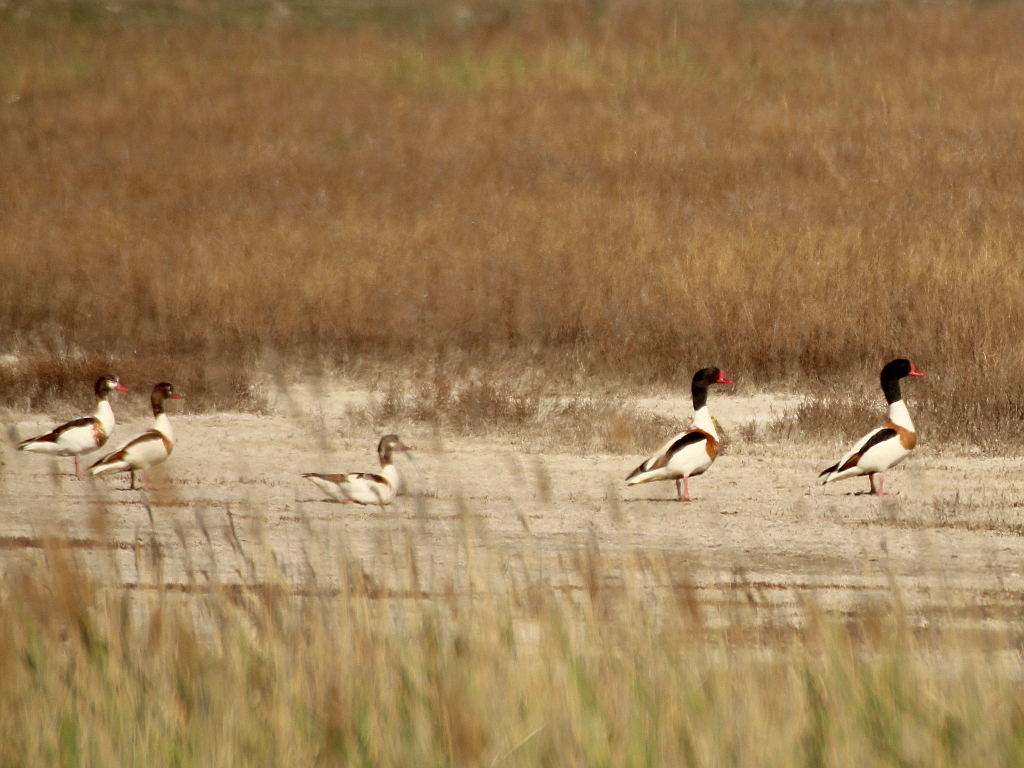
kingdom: Animalia
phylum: Chordata
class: Aves
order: Anseriformes
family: Anatidae
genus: Tadorna
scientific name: Tadorna tadorna
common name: Common shelduck
